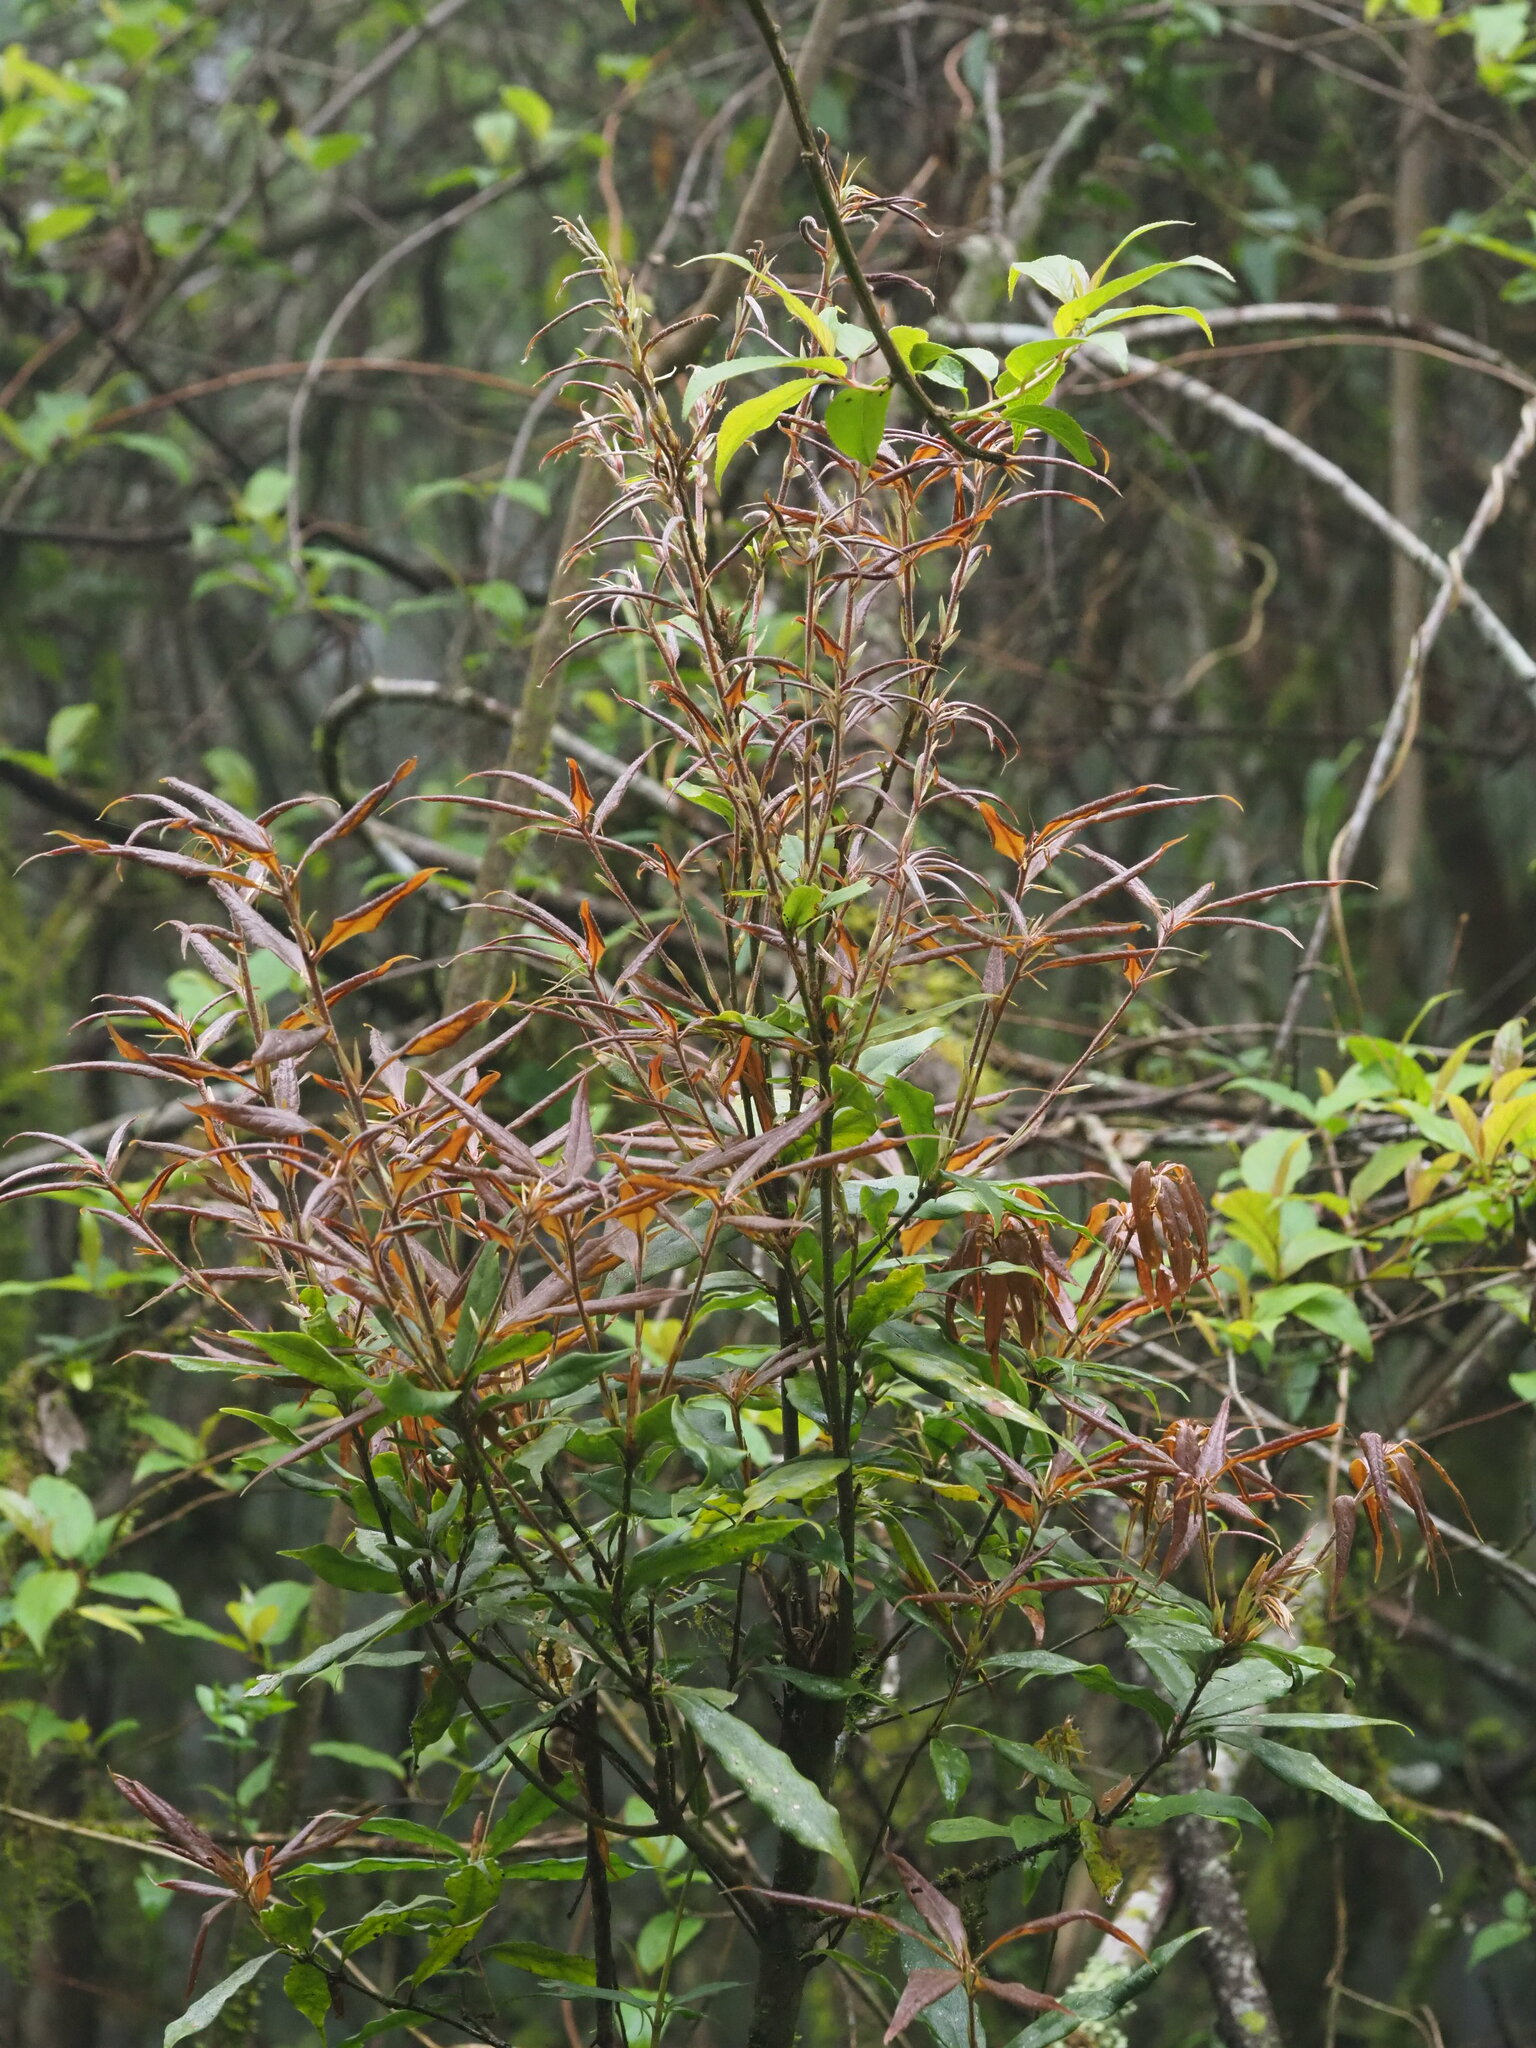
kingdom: Plantae
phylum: Tracheophyta
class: Magnoliopsida
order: Fagales
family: Fagaceae
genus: Quercus
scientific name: Quercus sessilifolia
